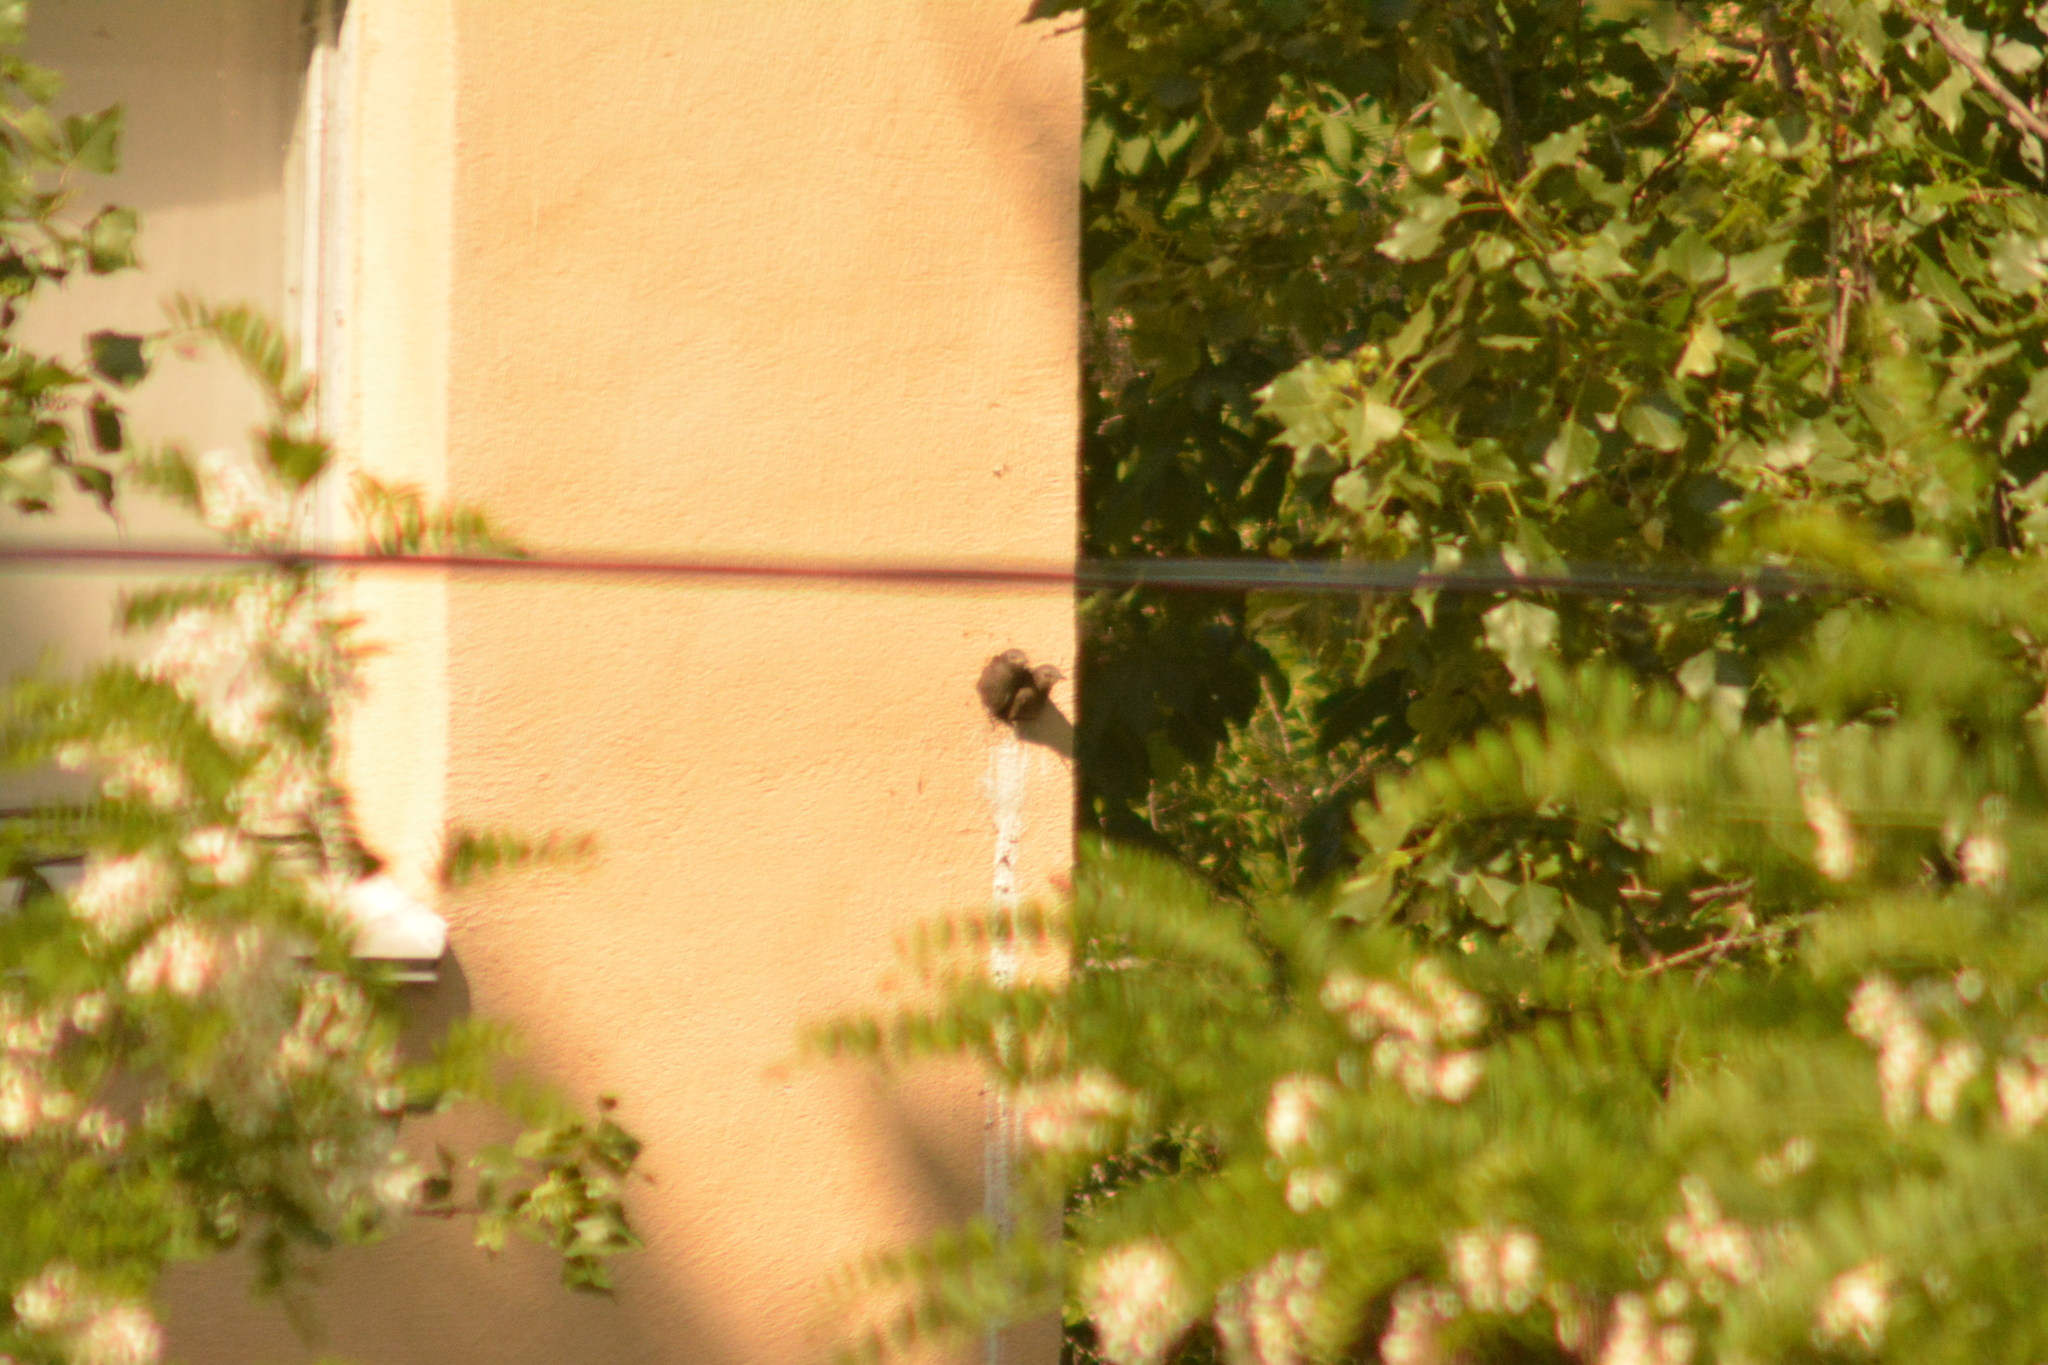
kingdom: Animalia
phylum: Chordata
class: Aves
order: Passeriformes
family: Sturnidae
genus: Sturnus
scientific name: Sturnus vulgaris
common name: Common starling
